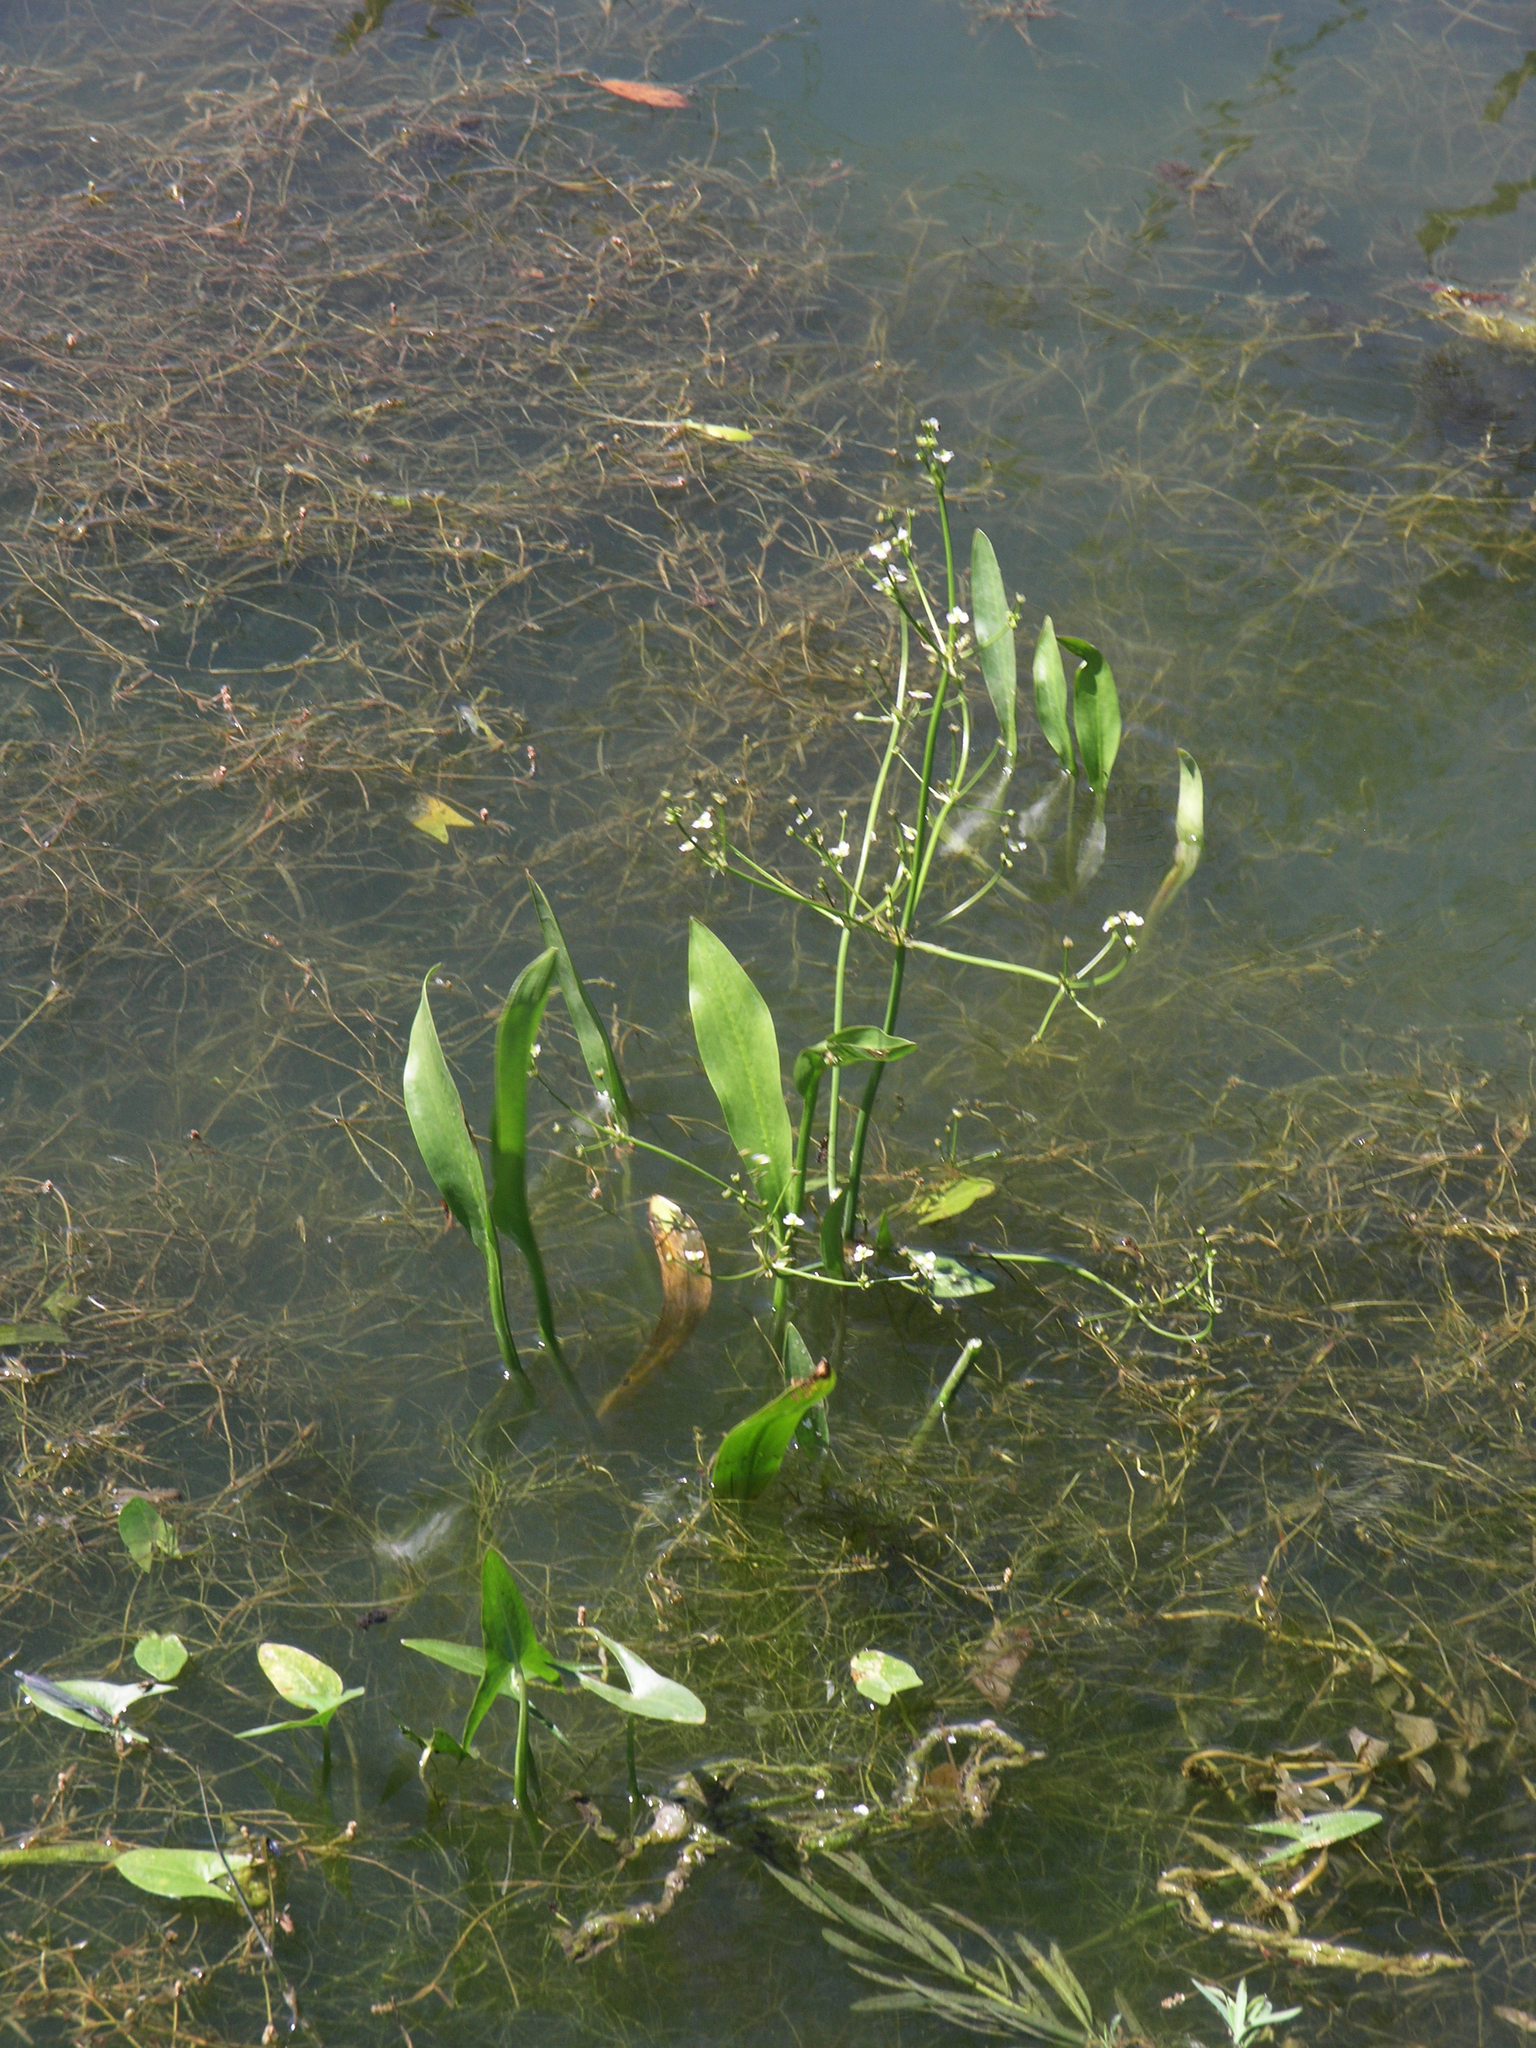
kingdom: Plantae
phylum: Tracheophyta
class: Liliopsida
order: Alismatales
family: Alismataceae
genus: Alisma
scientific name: Alisma lanceolatum
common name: Narrow-leaved water-plantain
